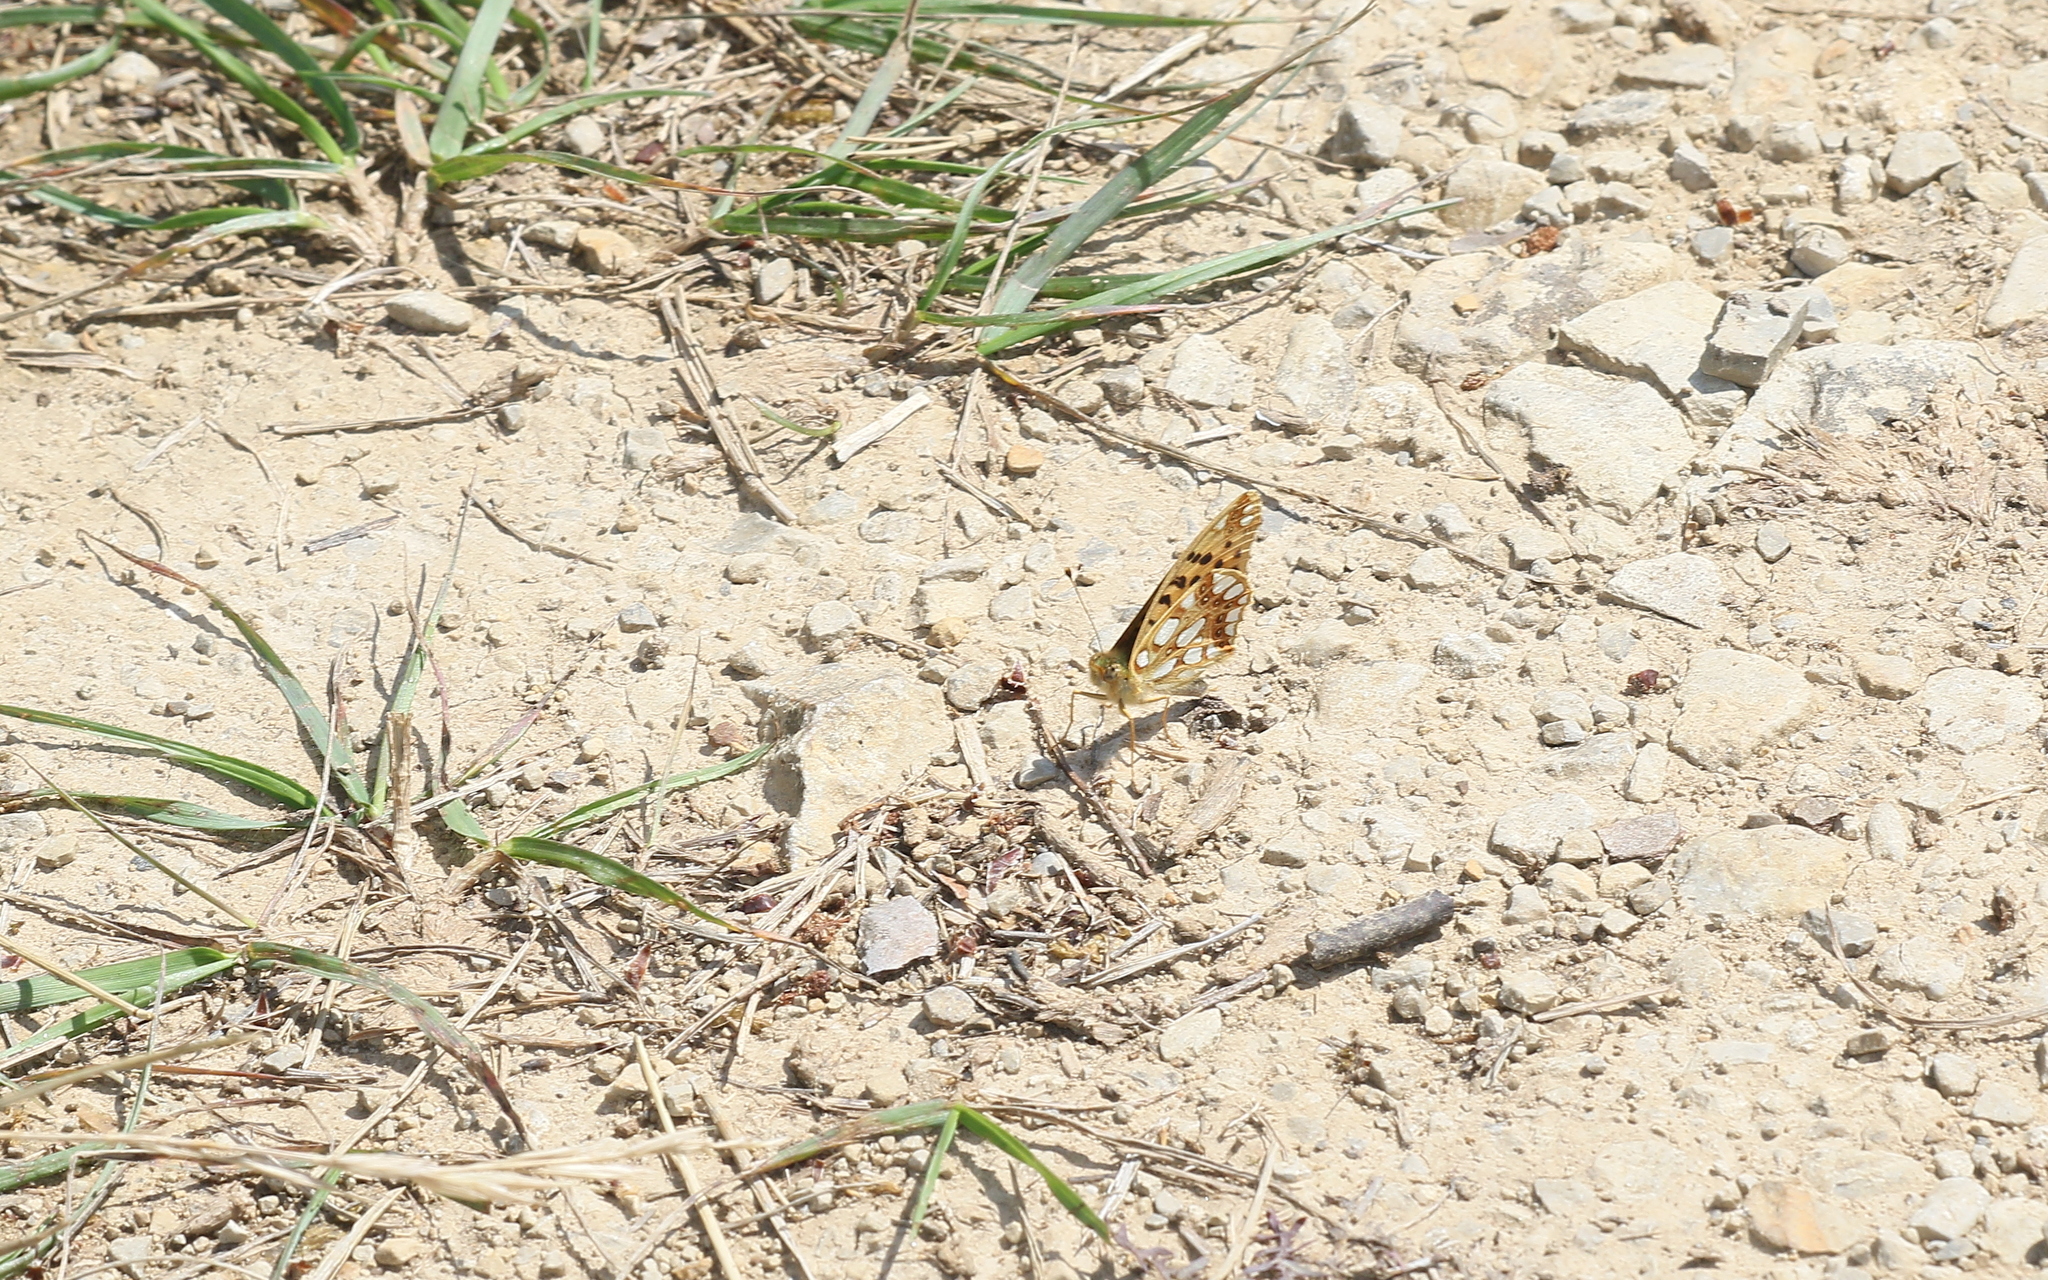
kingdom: Animalia
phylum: Arthropoda
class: Insecta
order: Lepidoptera
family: Nymphalidae
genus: Issoria
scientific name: Issoria lathonia
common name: Queen of spain fritillary
